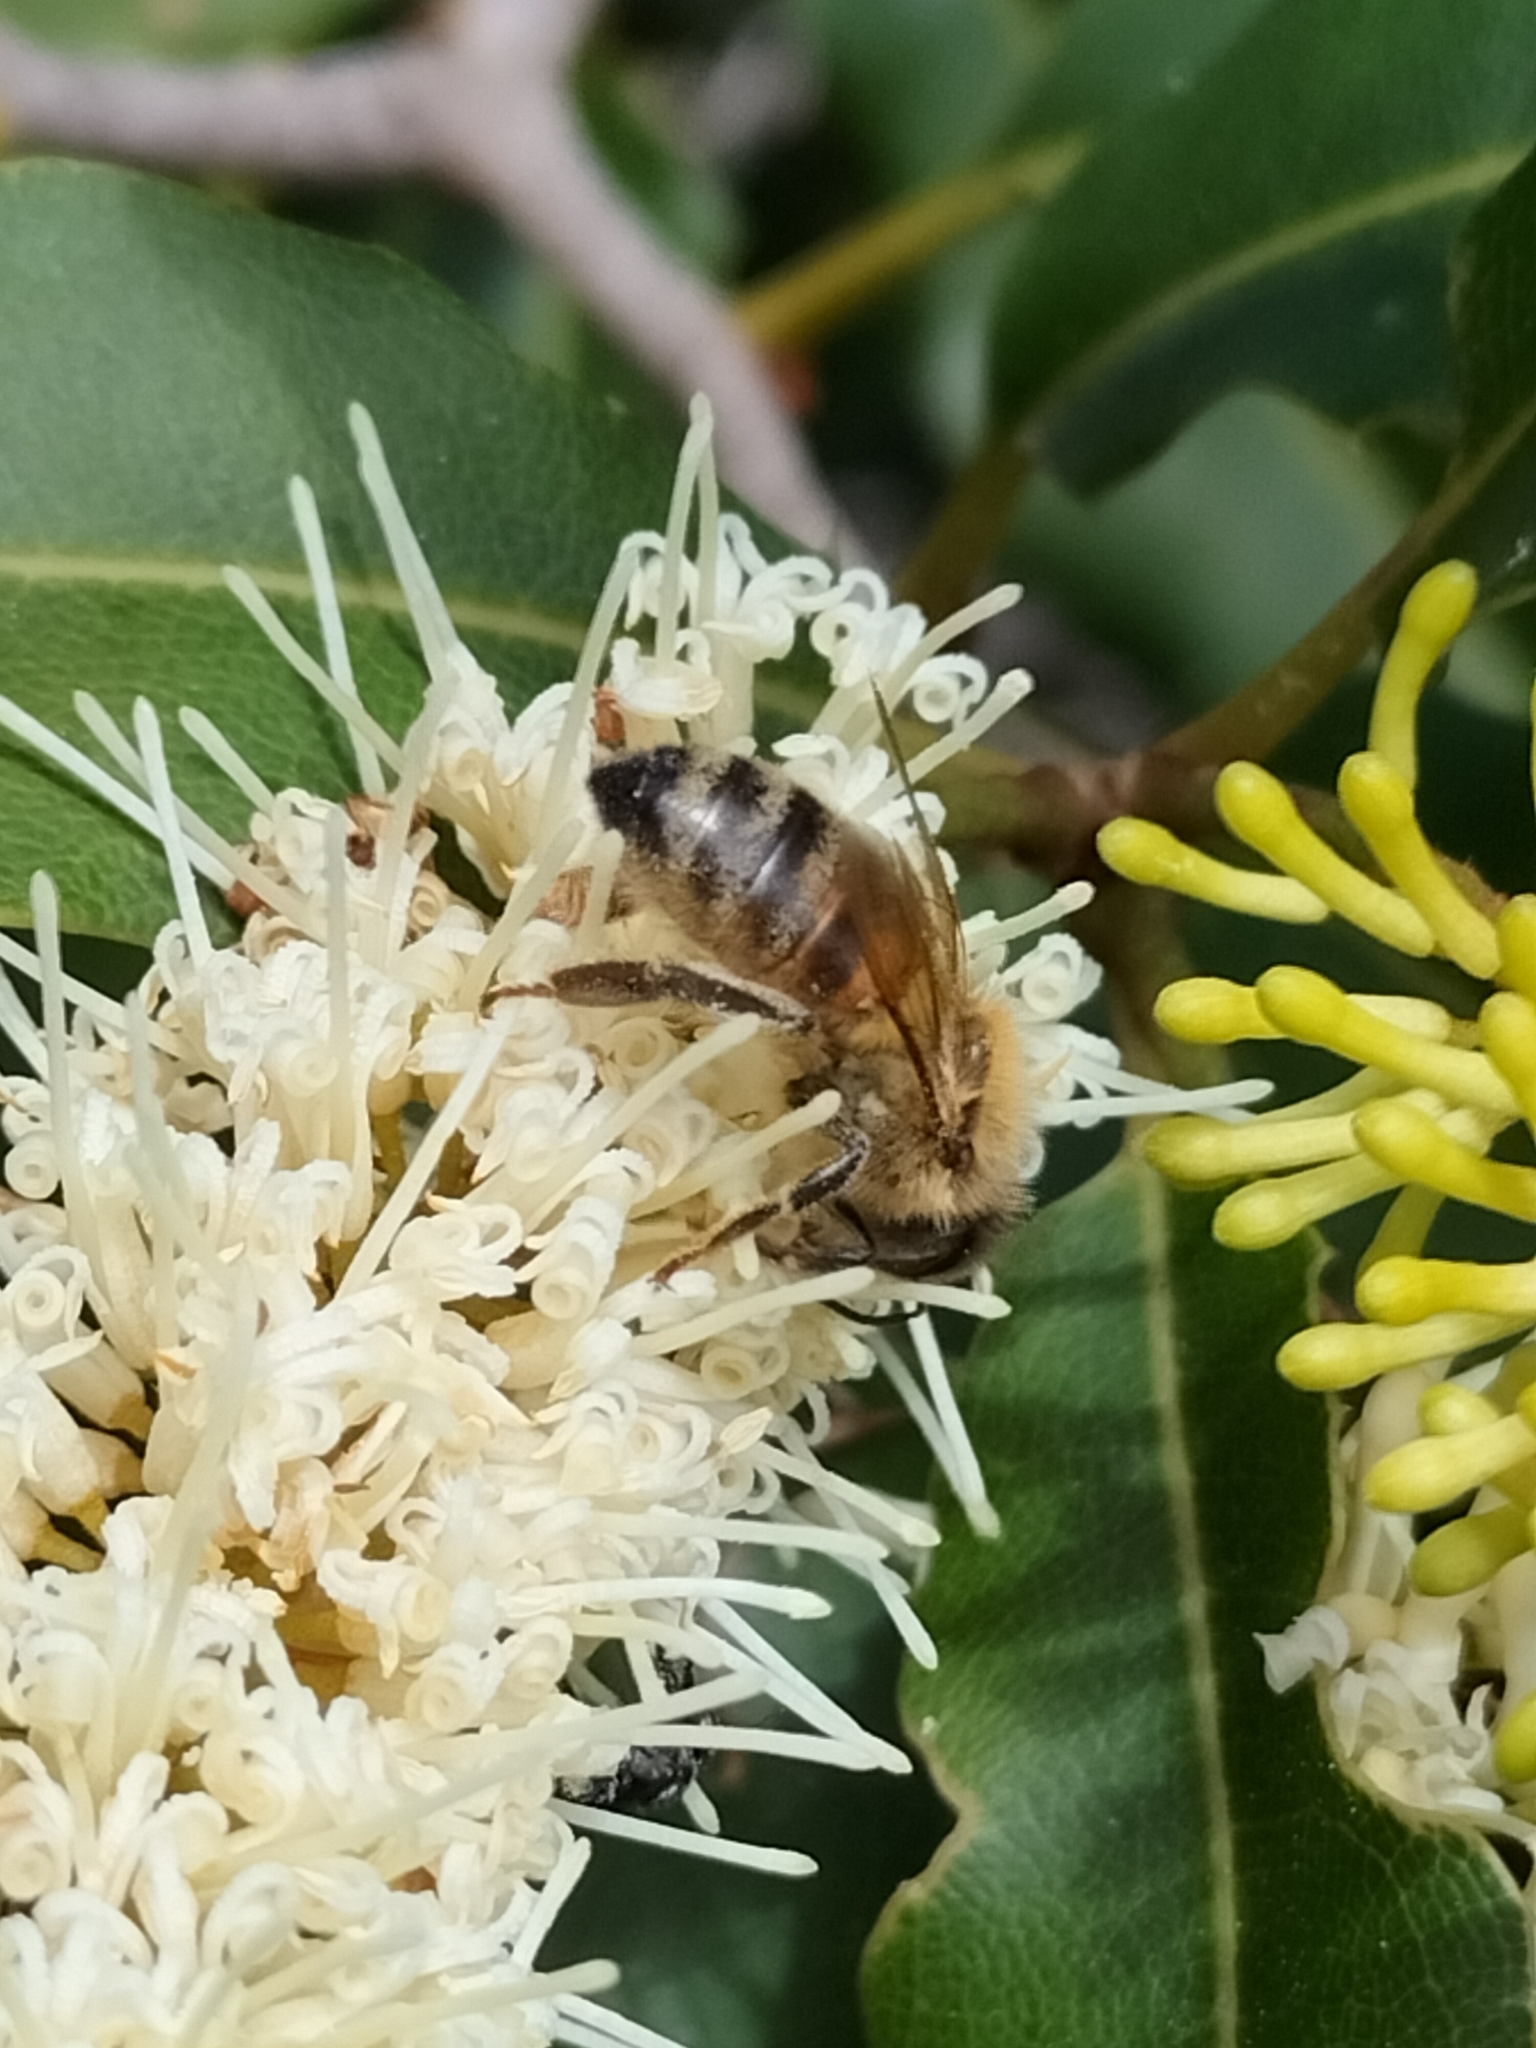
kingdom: Animalia
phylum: Arthropoda
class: Insecta
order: Hymenoptera
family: Apidae
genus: Apis
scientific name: Apis mellifera
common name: Honey bee
